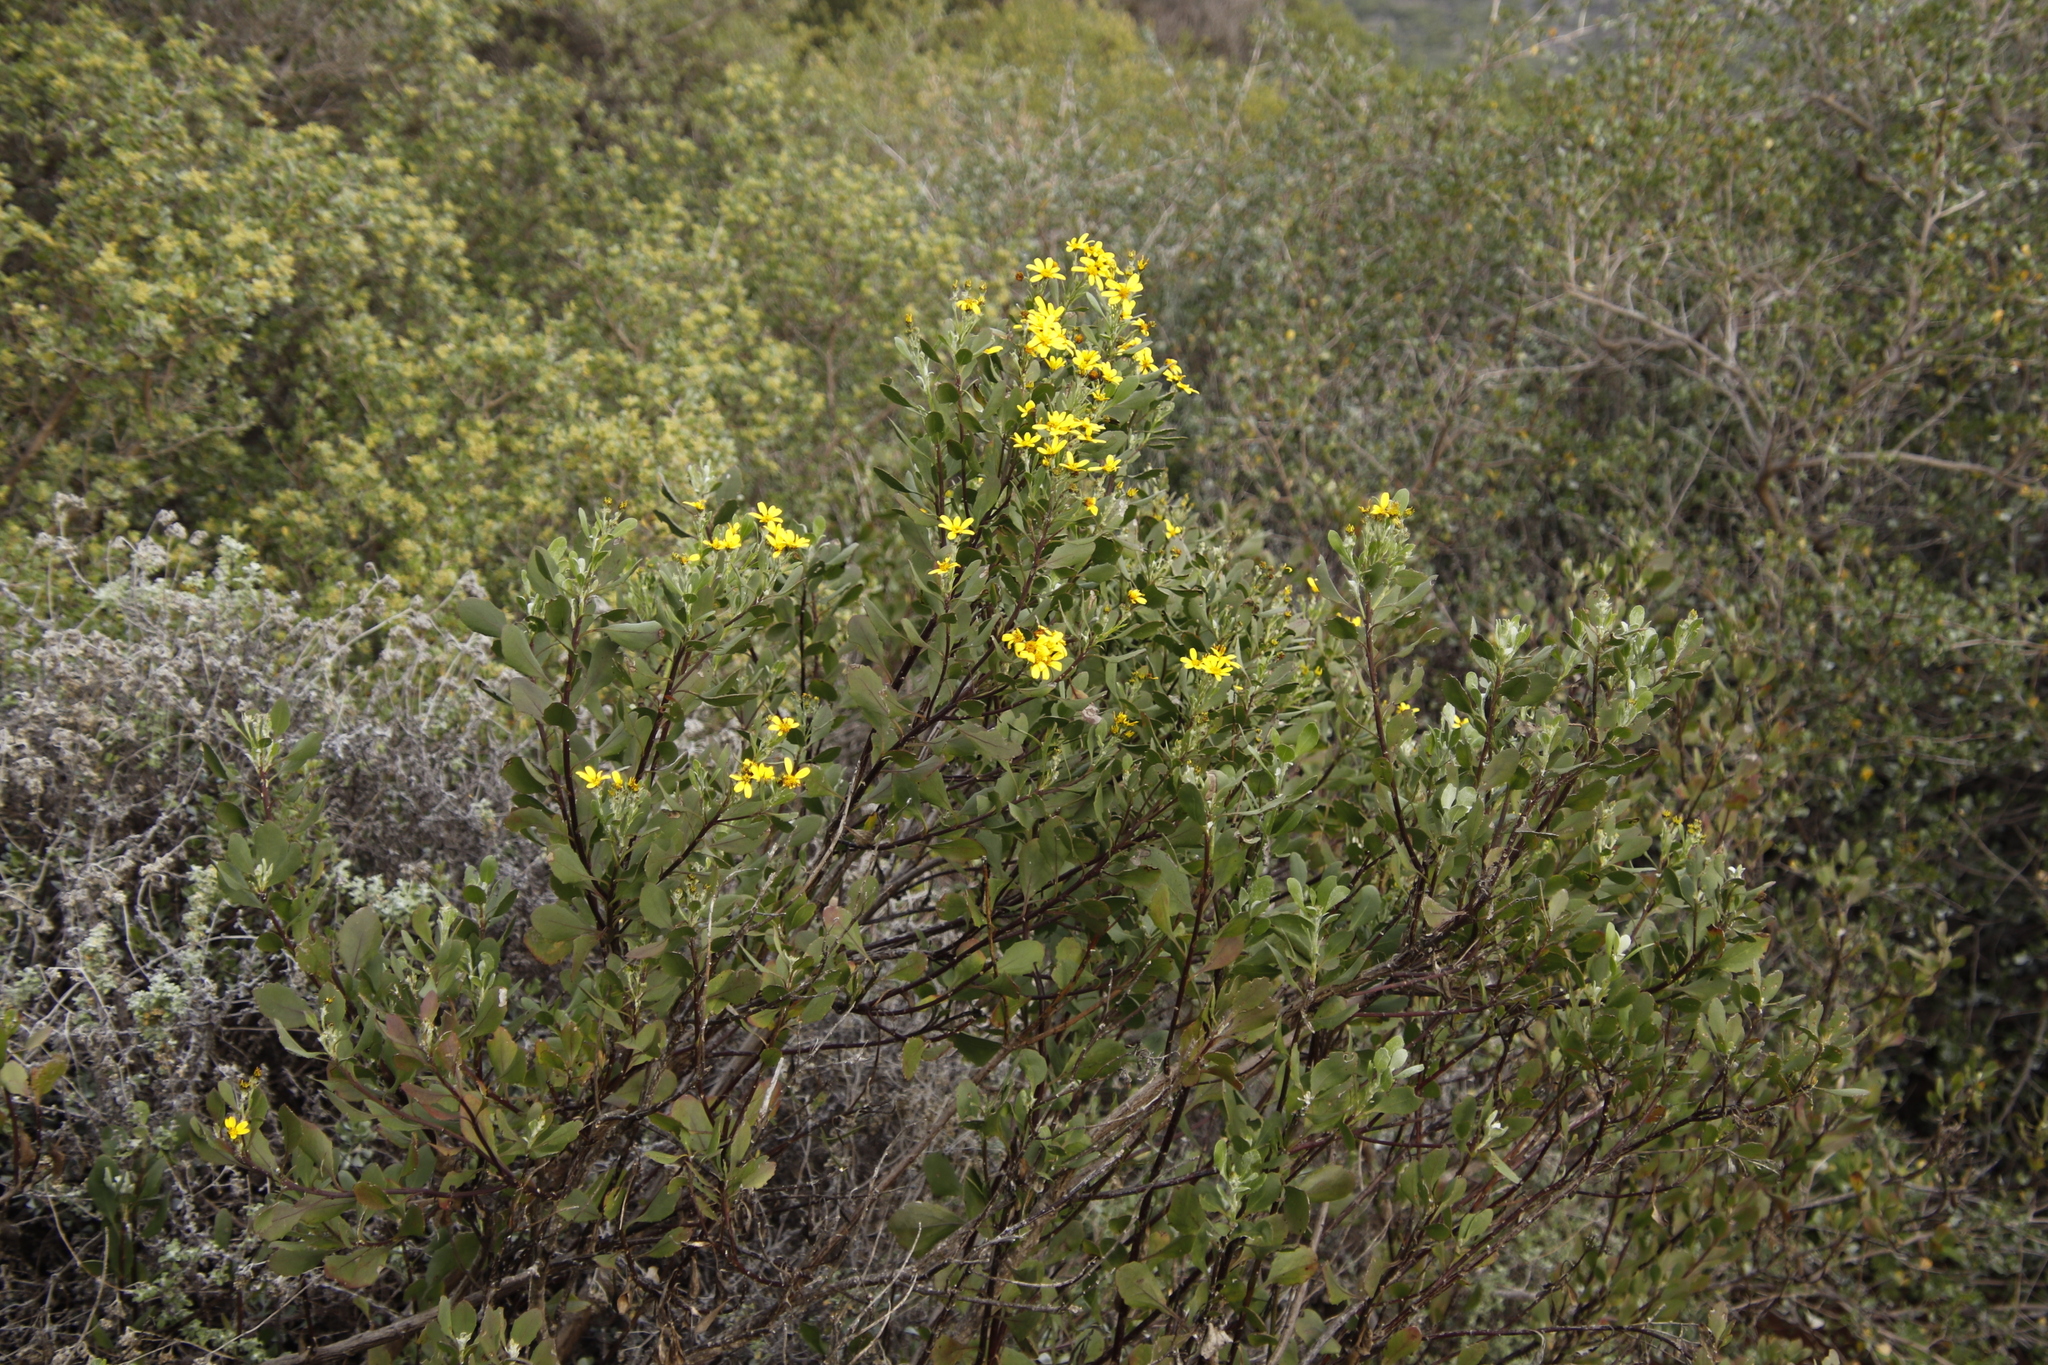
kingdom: Plantae
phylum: Tracheophyta
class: Magnoliopsida
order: Asterales
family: Asteraceae
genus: Osteospermum
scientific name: Osteospermum moniliferum
